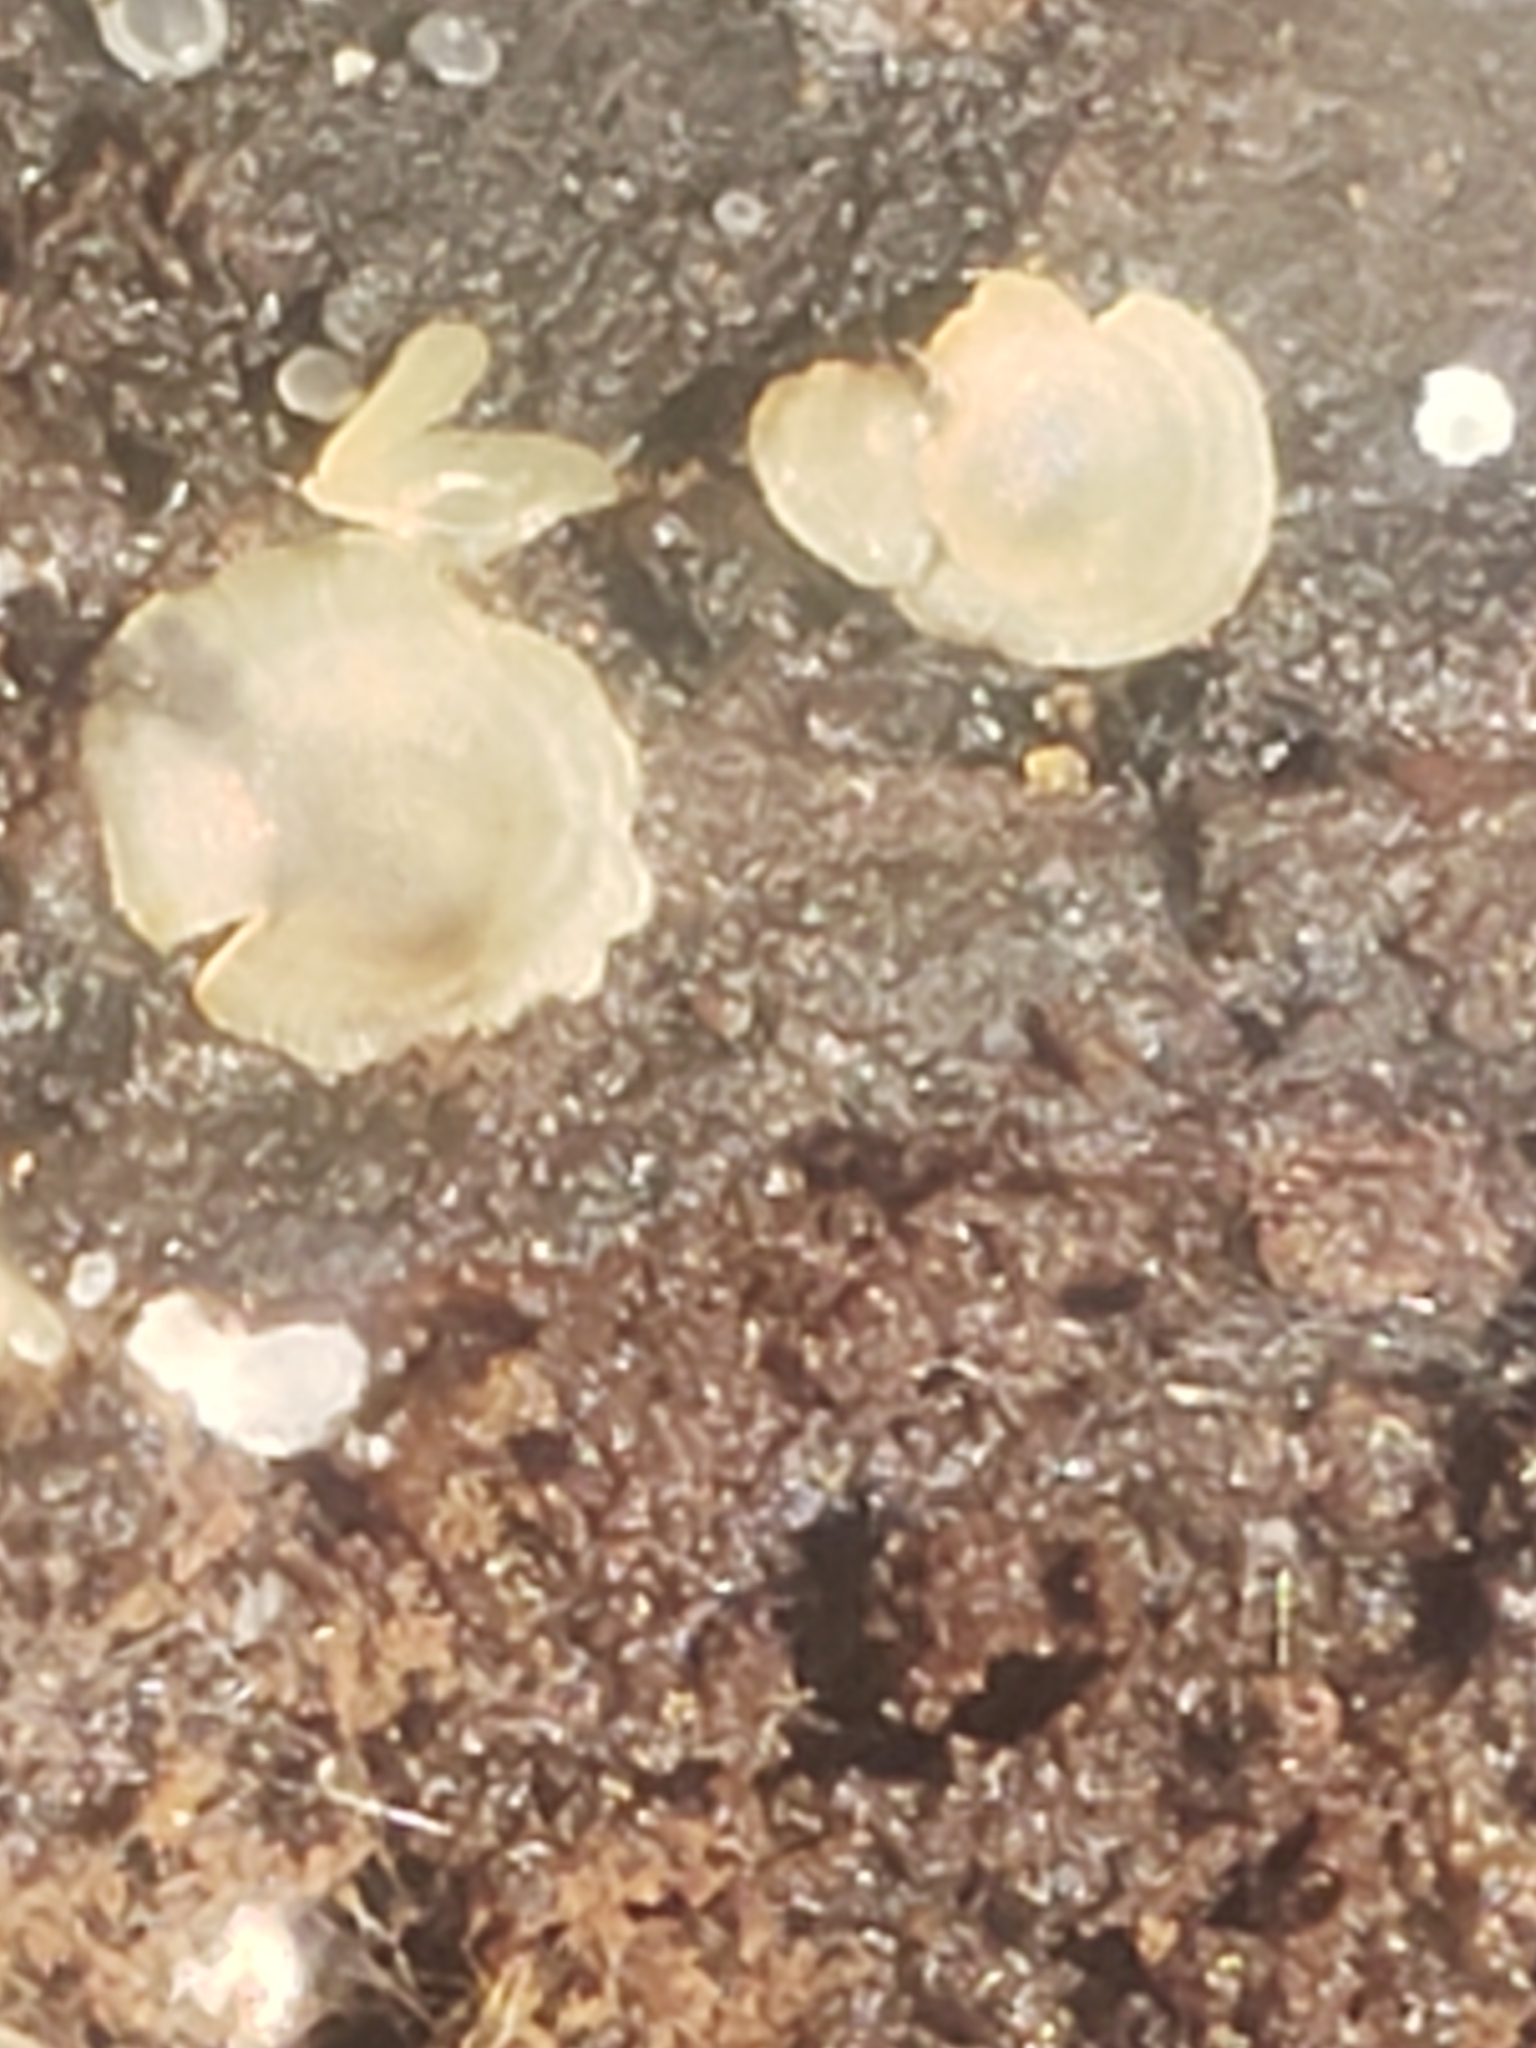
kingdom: Fungi
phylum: Ascomycota
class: Orbiliomycetes
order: Orbiliales
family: Orbiliaceae
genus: Hyalorbilia
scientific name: Hyalorbilia
